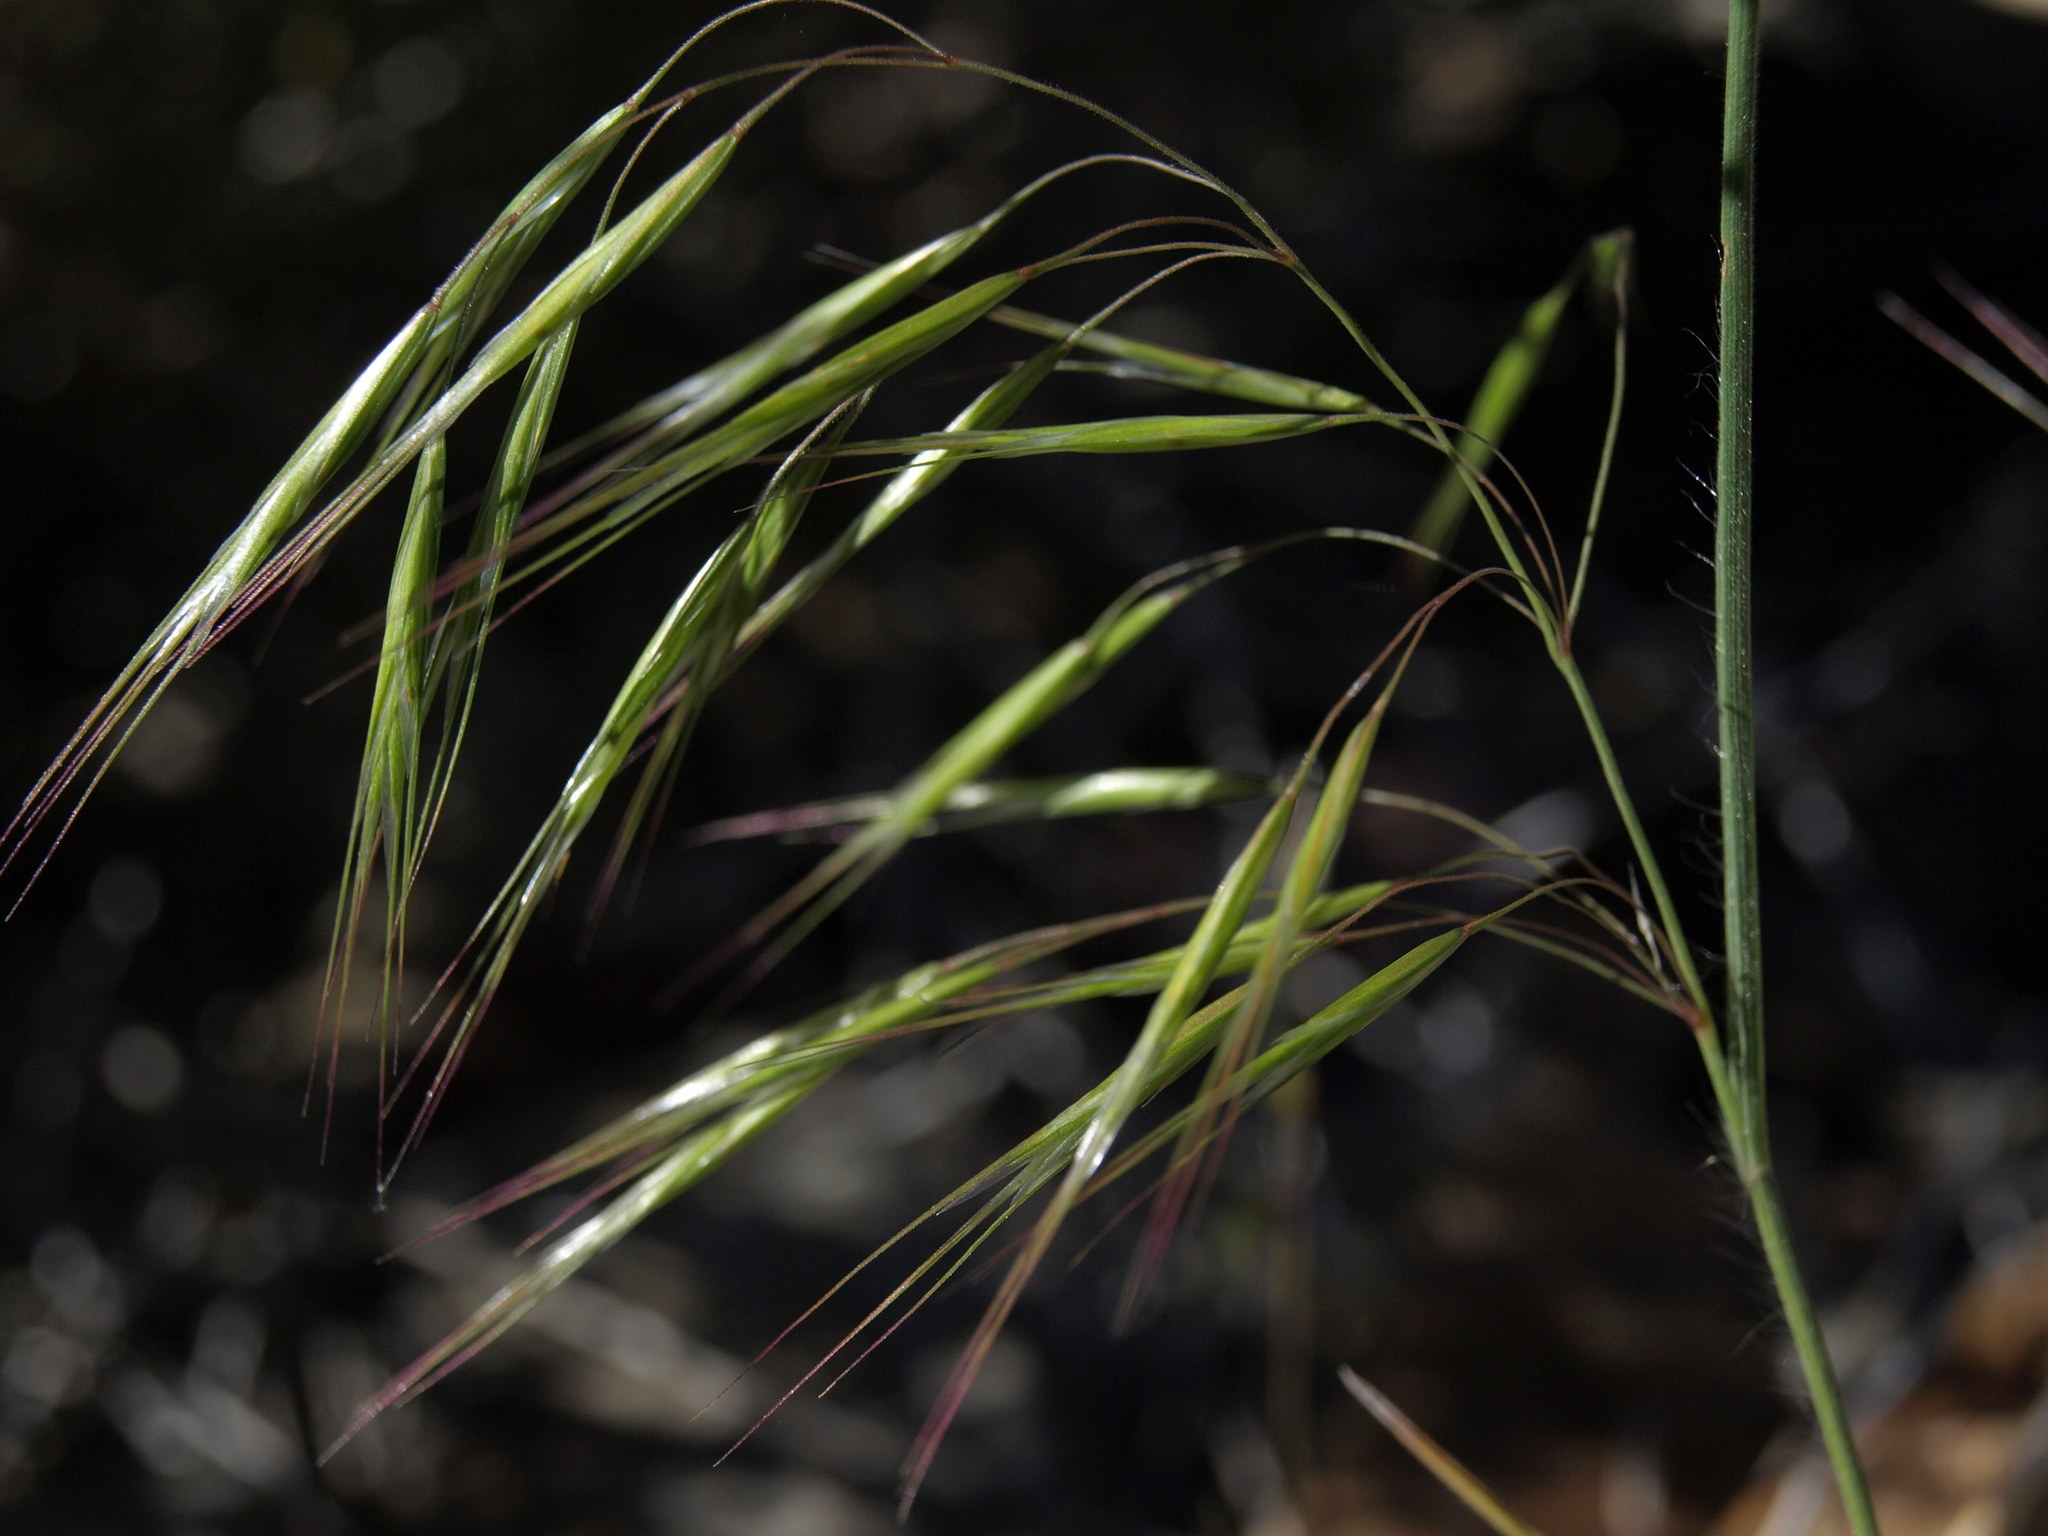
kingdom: Plantae
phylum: Tracheophyta
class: Liliopsida
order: Poales
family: Poaceae
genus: Bromus
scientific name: Bromus tectorum
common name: Cheatgrass
